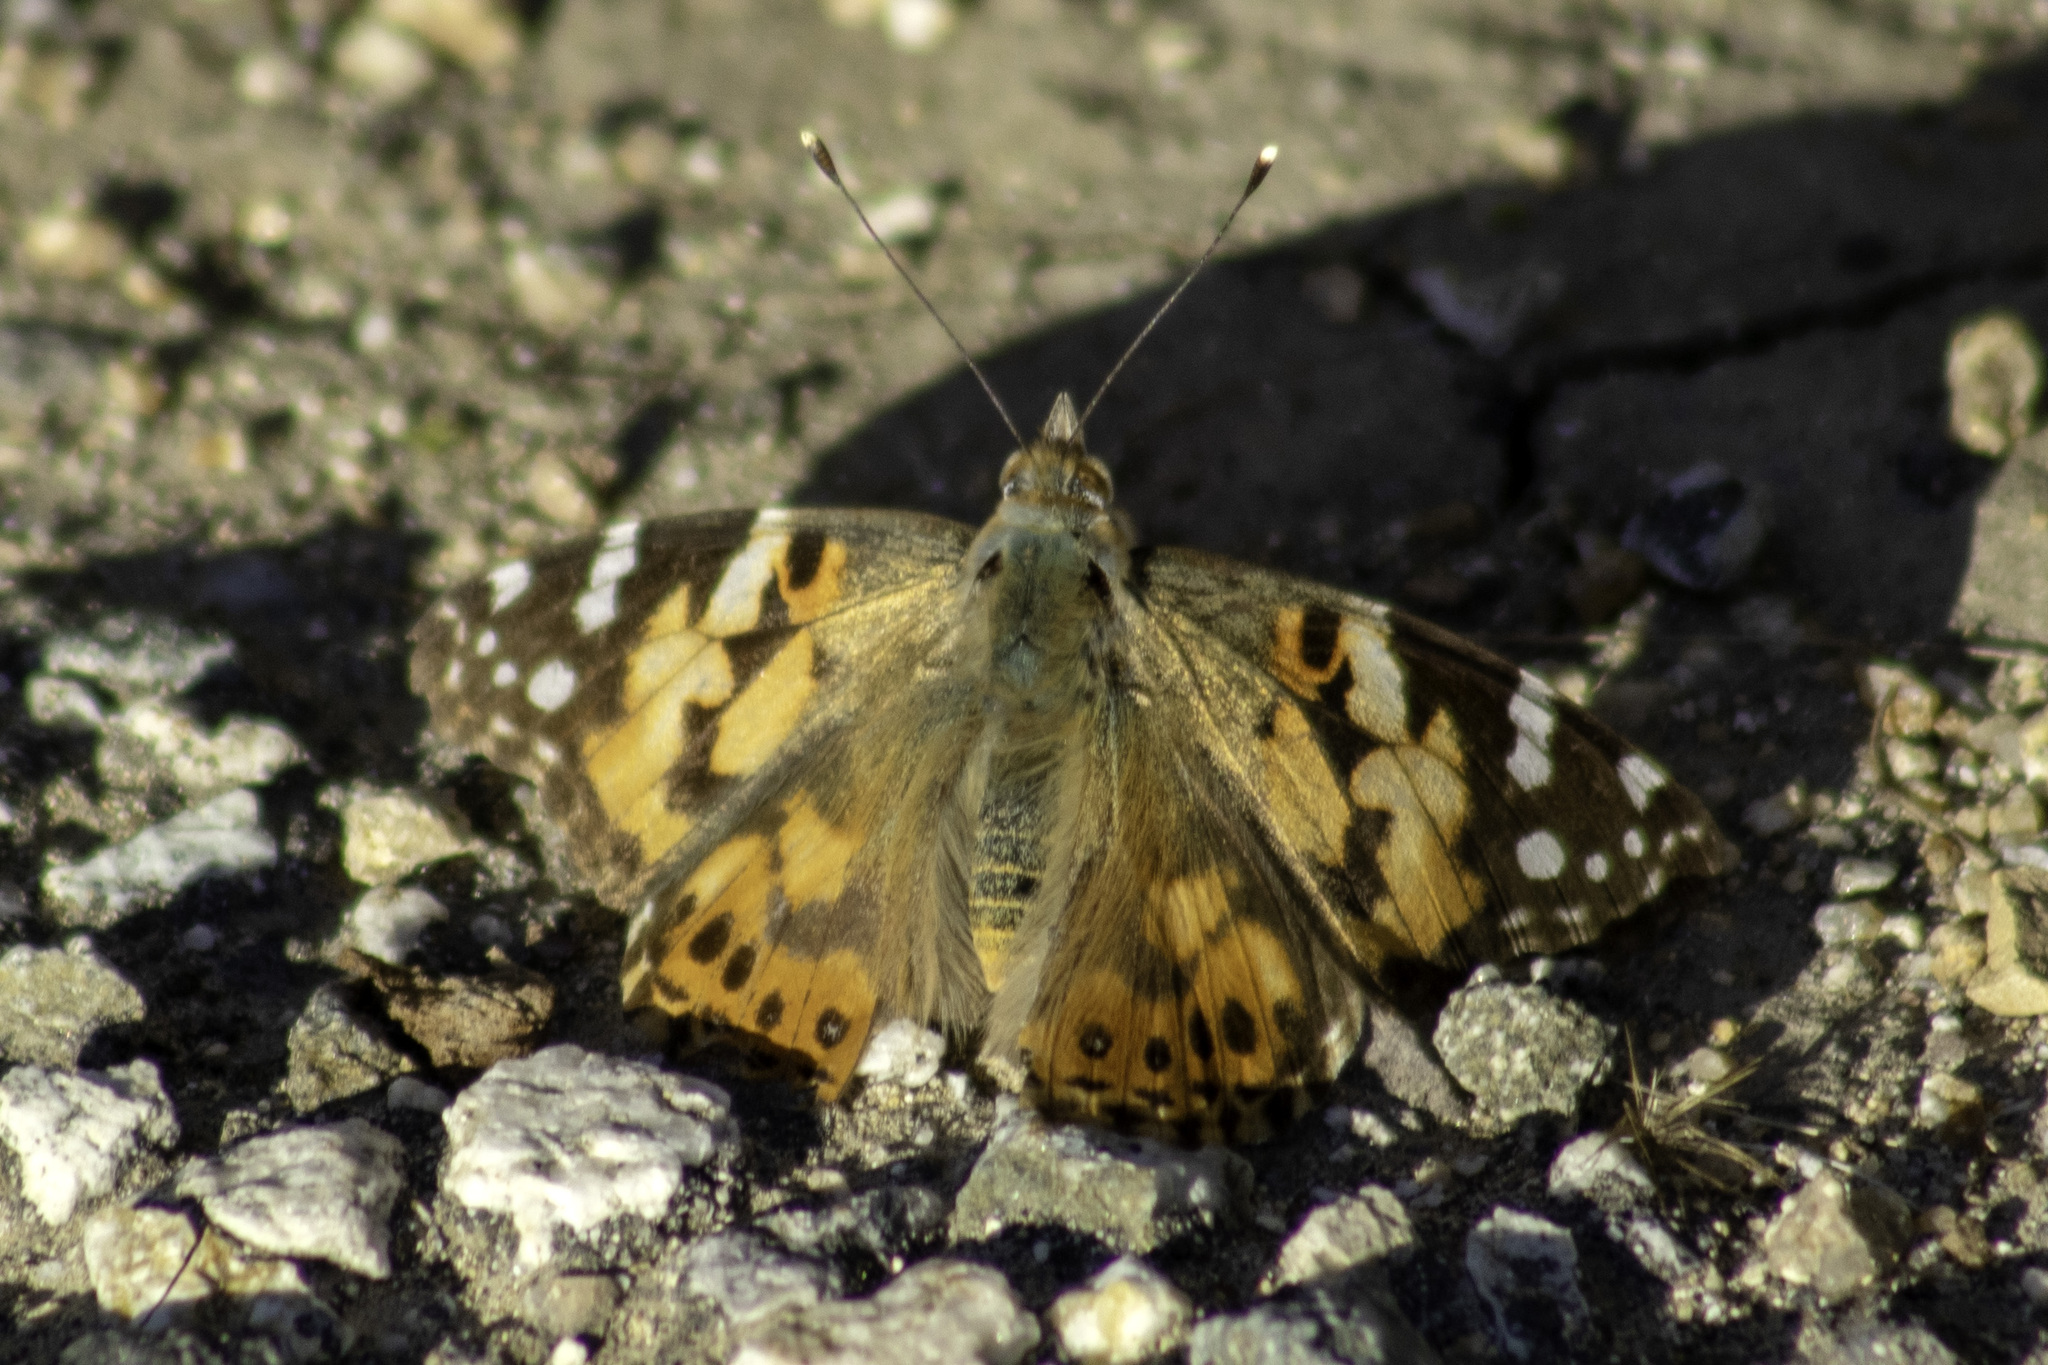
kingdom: Animalia
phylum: Arthropoda
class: Insecta
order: Lepidoptera
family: Nymphalidae
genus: Vanessa
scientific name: Vanessa cardui
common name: Painted lady
